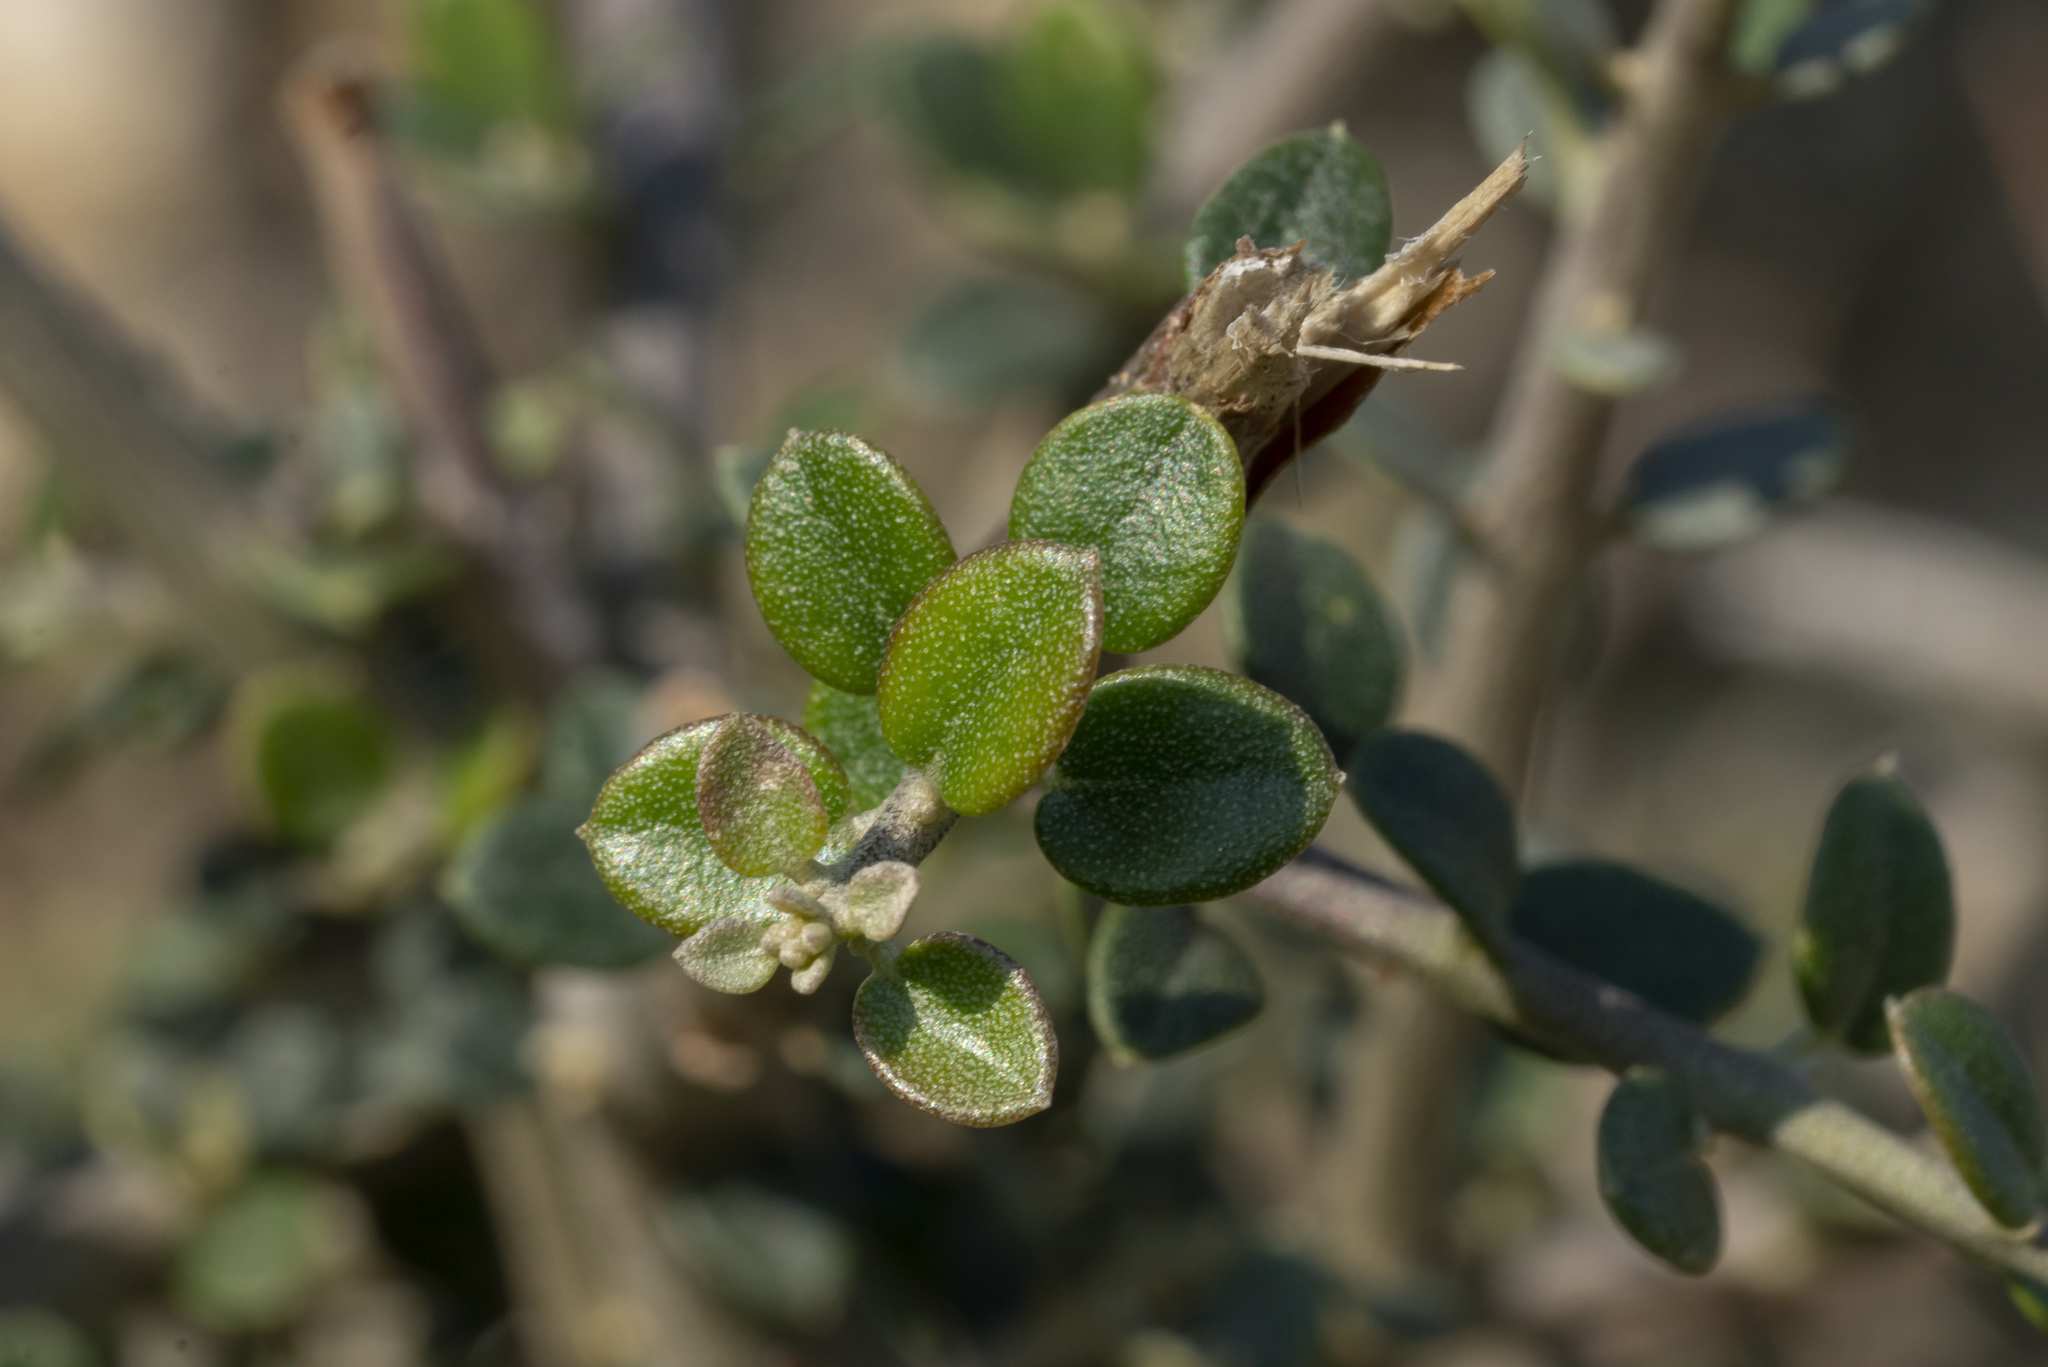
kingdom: Plantae
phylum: Tracheophyta
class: Magnoliopsida
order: Lamiales
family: Oleaceae
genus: Olea
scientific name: Olea europaea
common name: Olive
